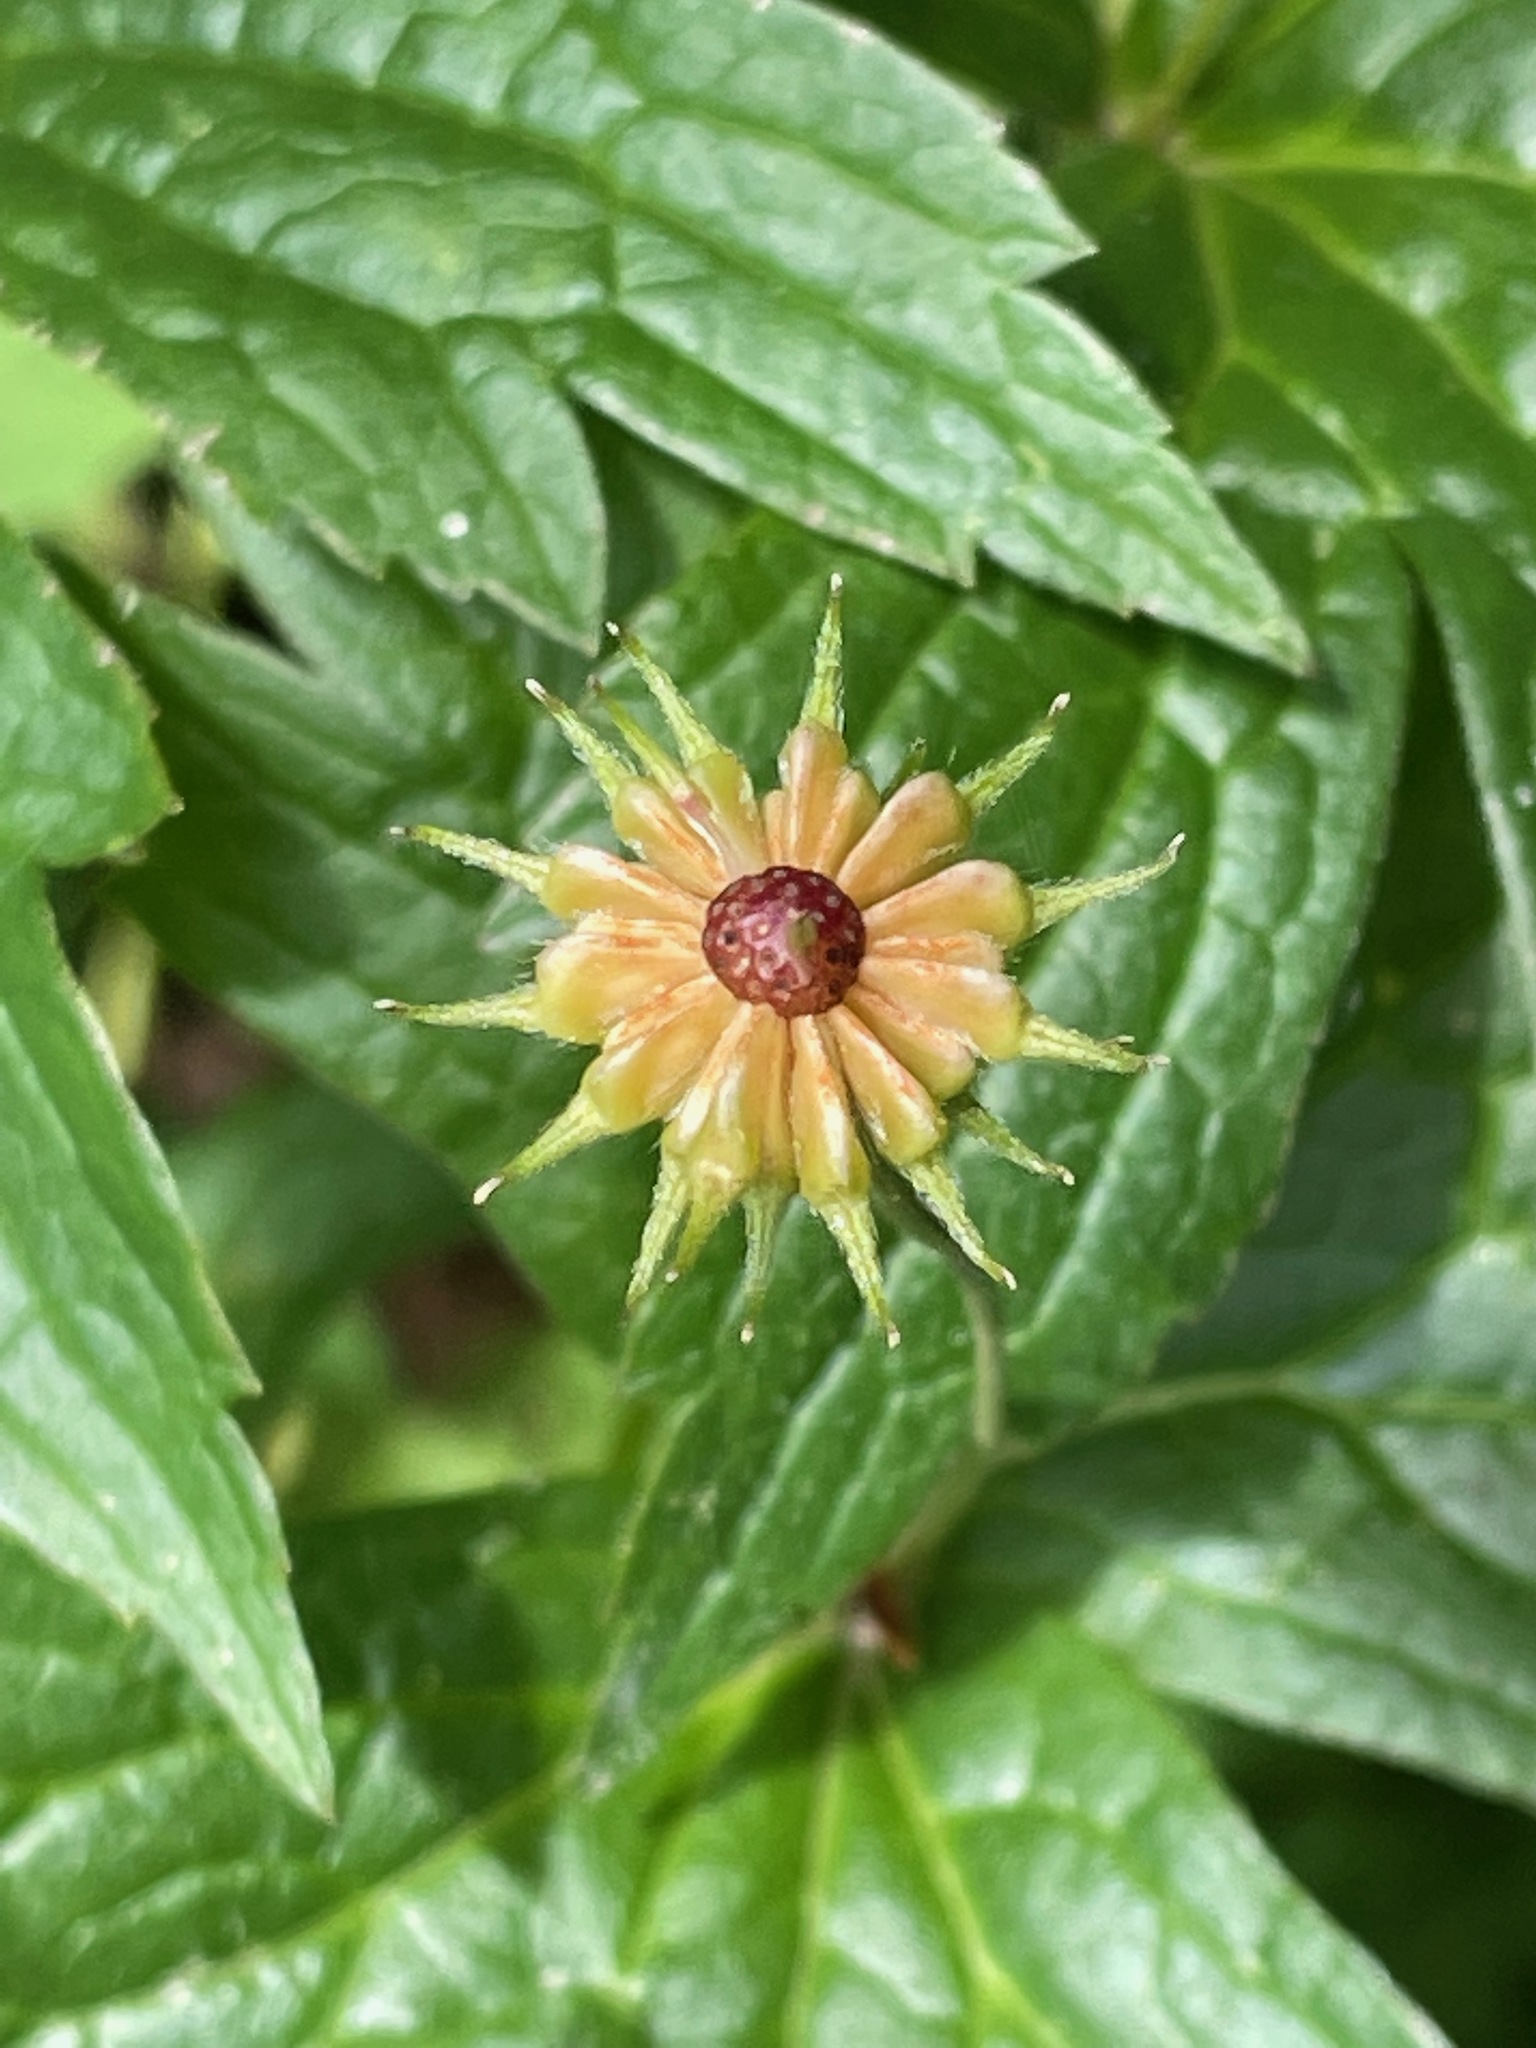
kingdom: Plantae
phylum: Tracheophyta
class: Magnoliopsida
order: Ranunculales
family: Ranunculaceae
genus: Anemonastrum
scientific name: Anemonastrum canadense
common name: Canada anemone
